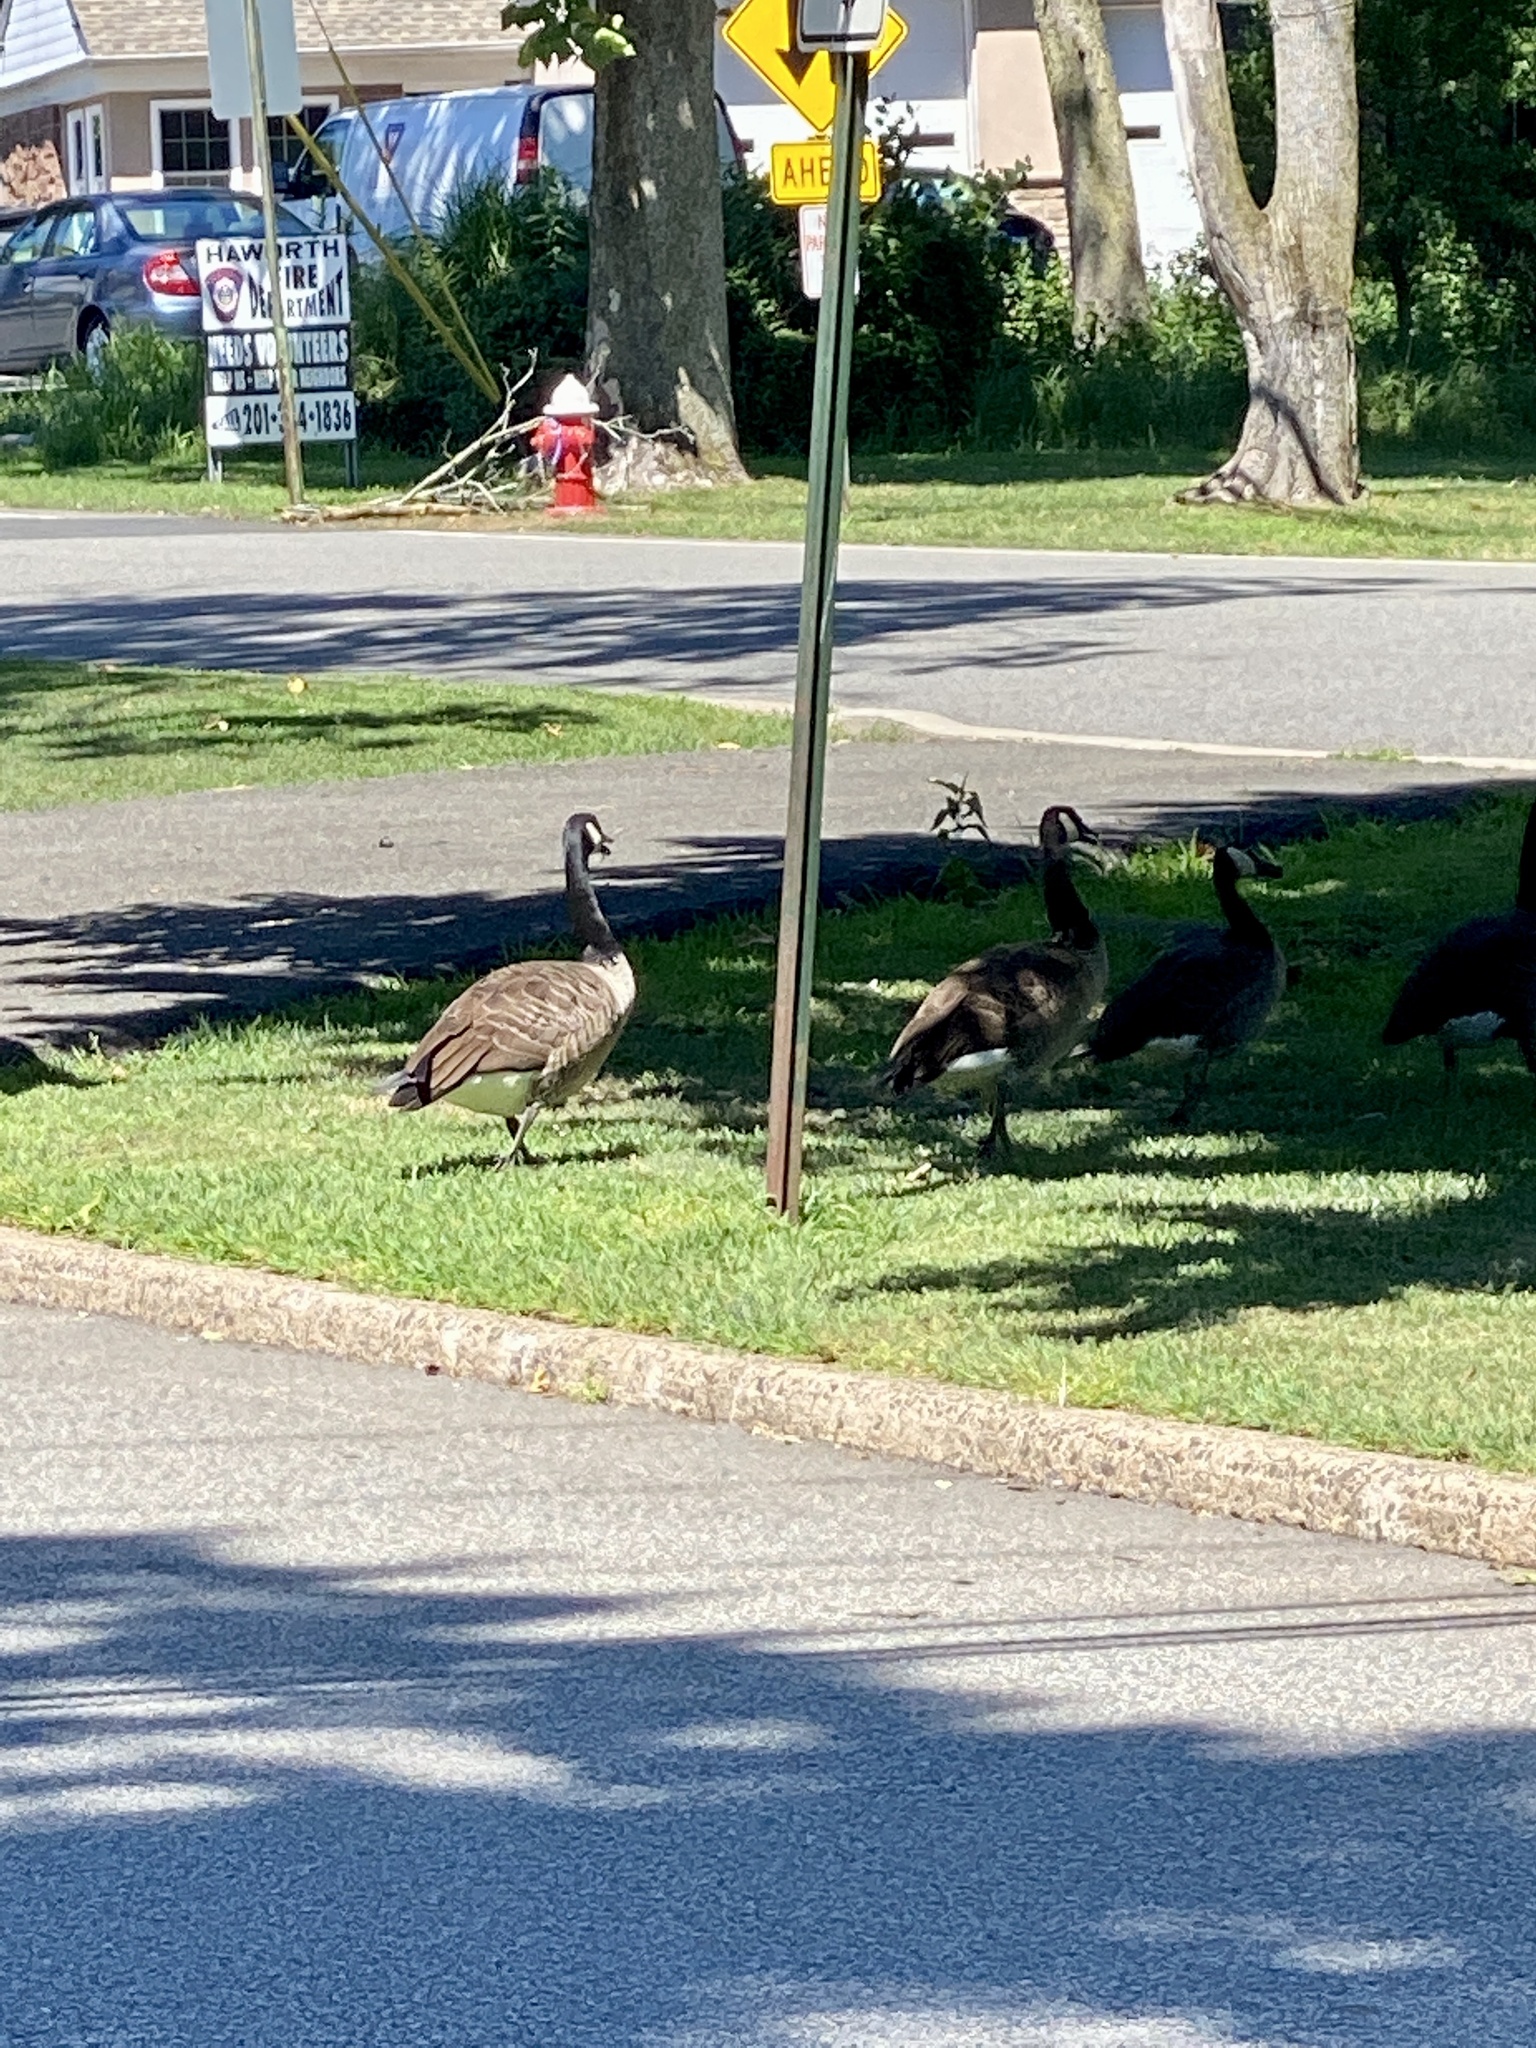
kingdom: Animalia
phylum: Chordata
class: Aves
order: Anseriformes
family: Anatidae
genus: Branta
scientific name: Branta canadensis
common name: Canada goose
